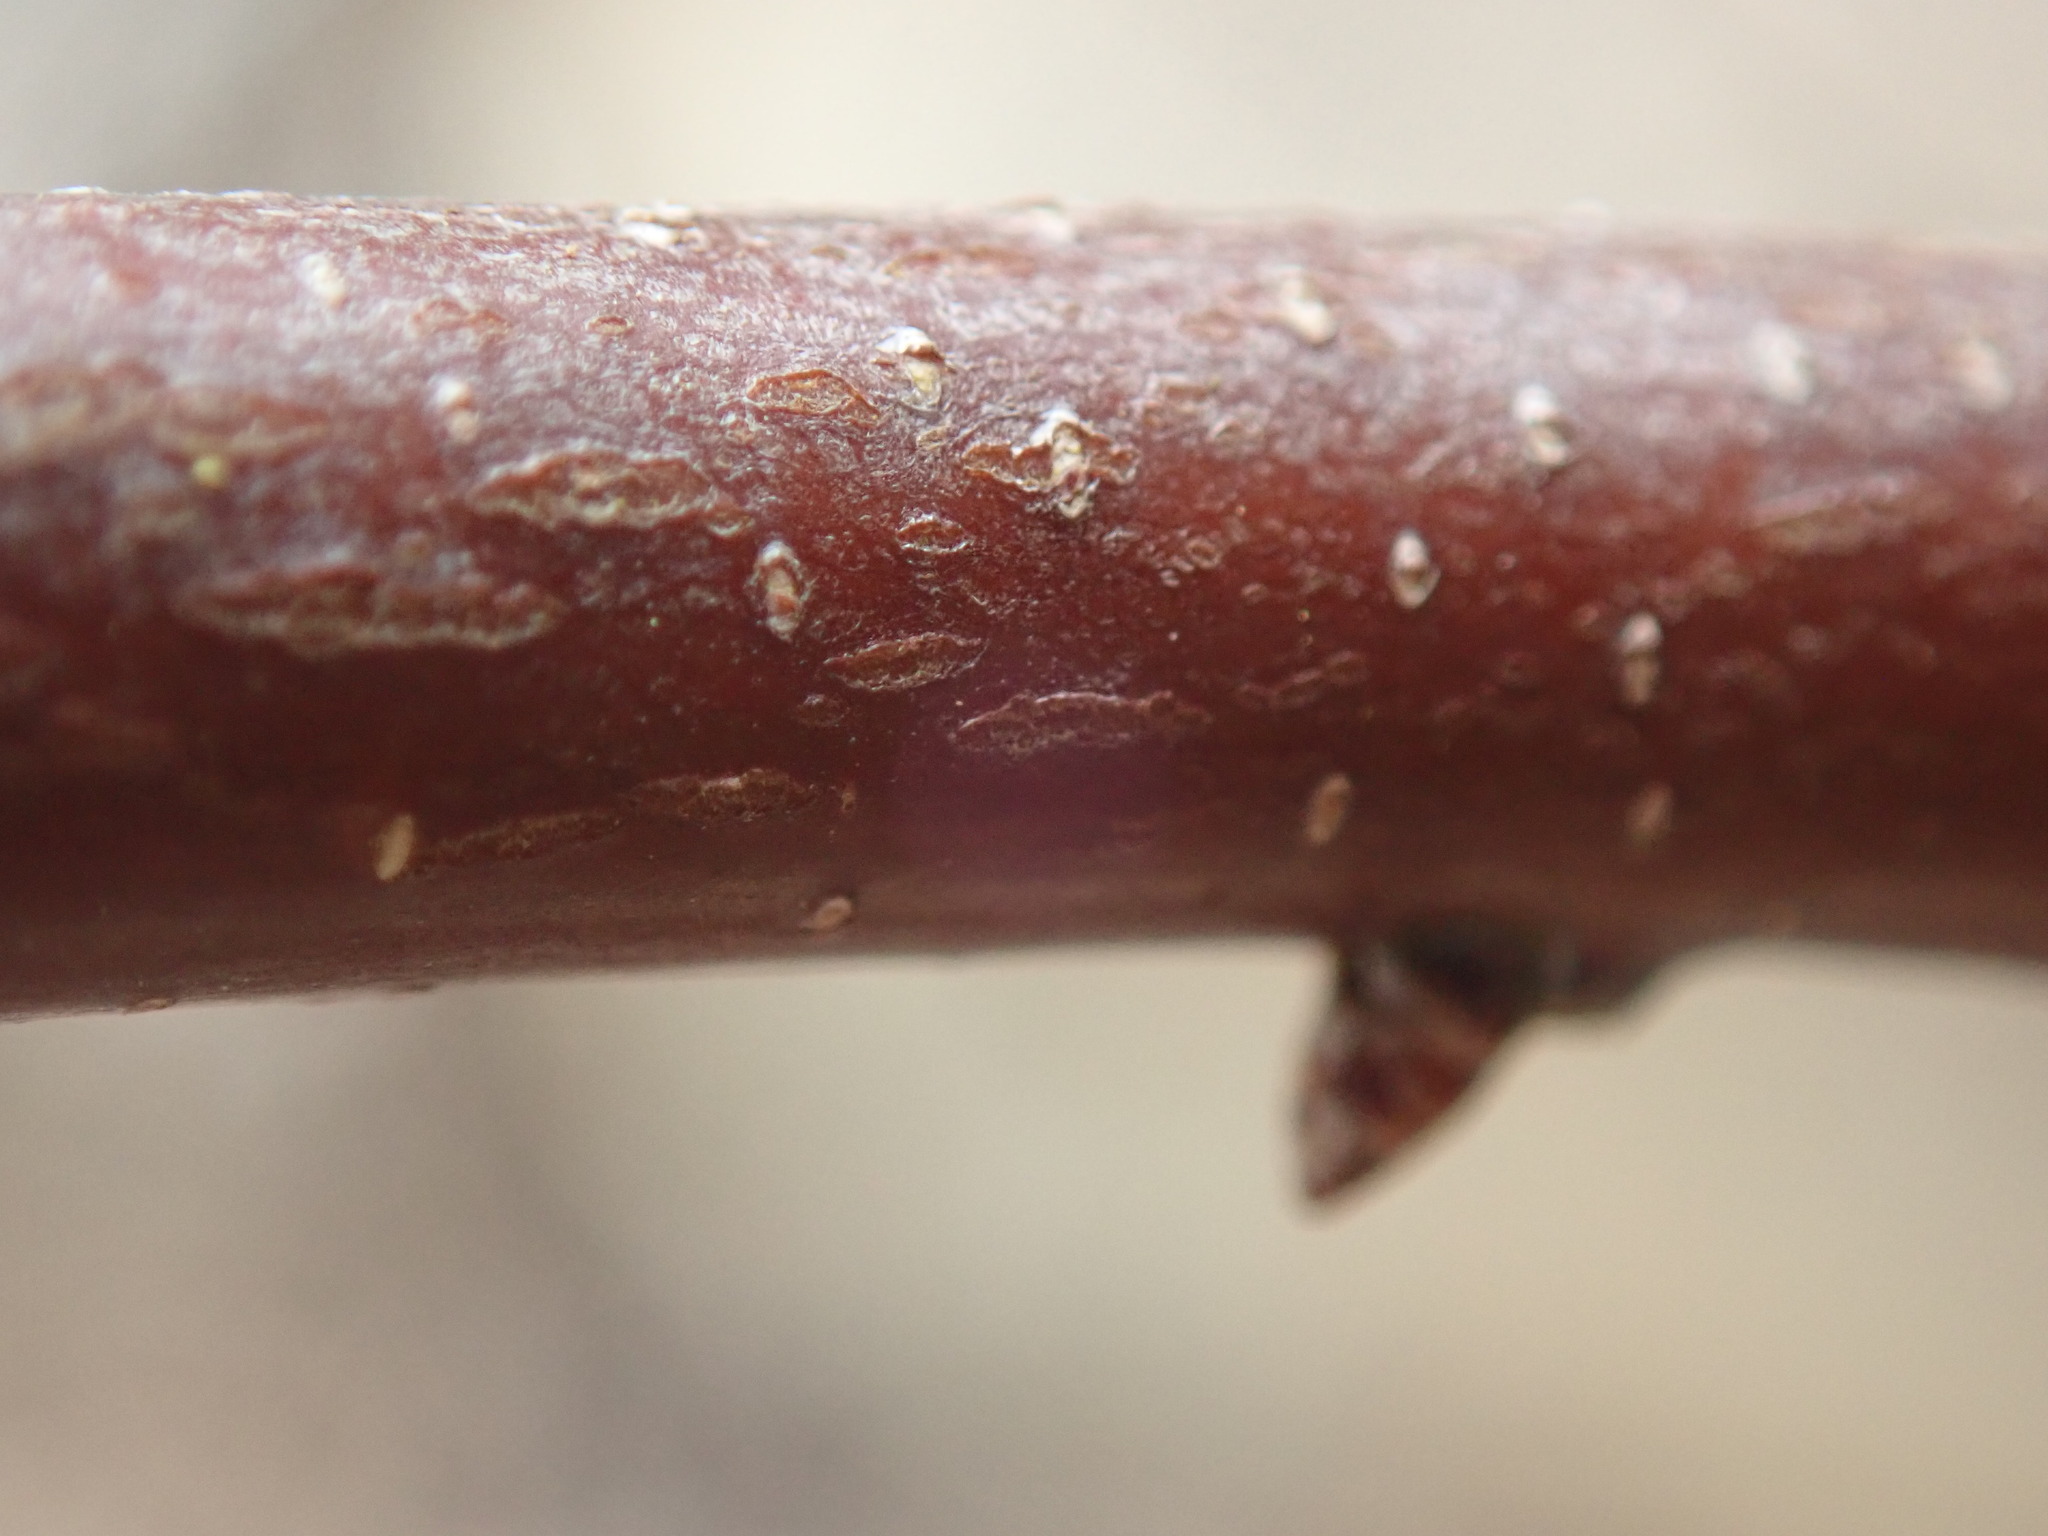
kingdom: Plantae
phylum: Tracheophyta
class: Magnoliopsida
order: Fagales
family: Myricaceae
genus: Myrica
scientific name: Myrica gale
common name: Sweet gale
